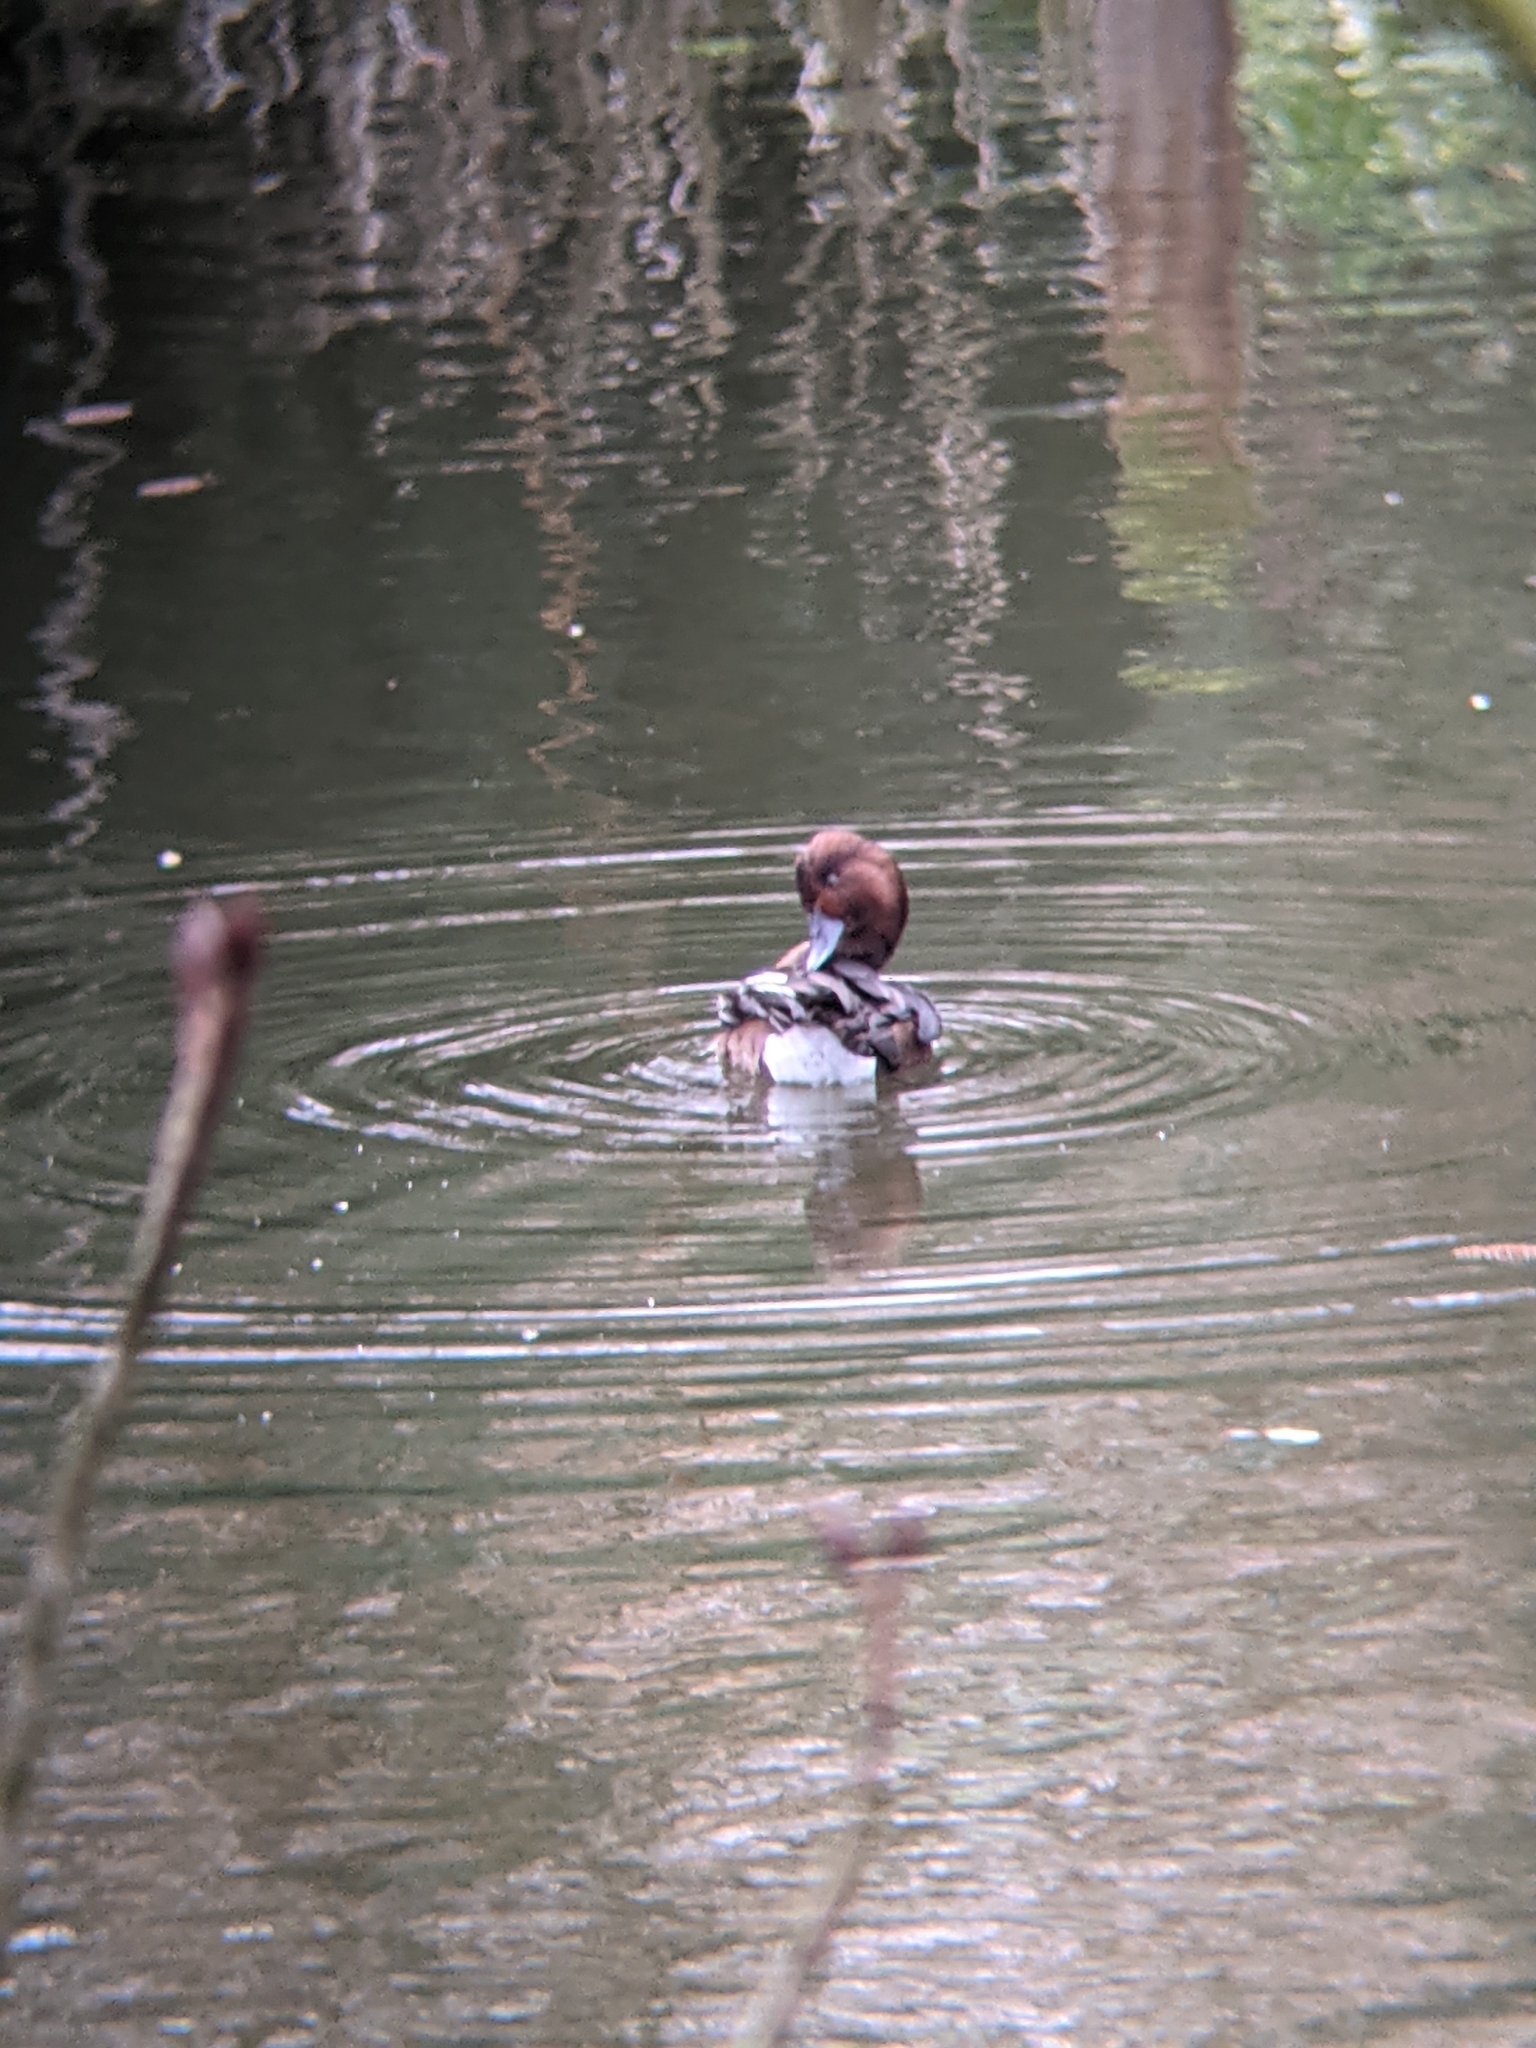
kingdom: Animalia
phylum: Chordata
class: Aves
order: Anseriformes
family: Anatidae
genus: Aythya
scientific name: Aythya nyroca
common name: Ferruginous duck
